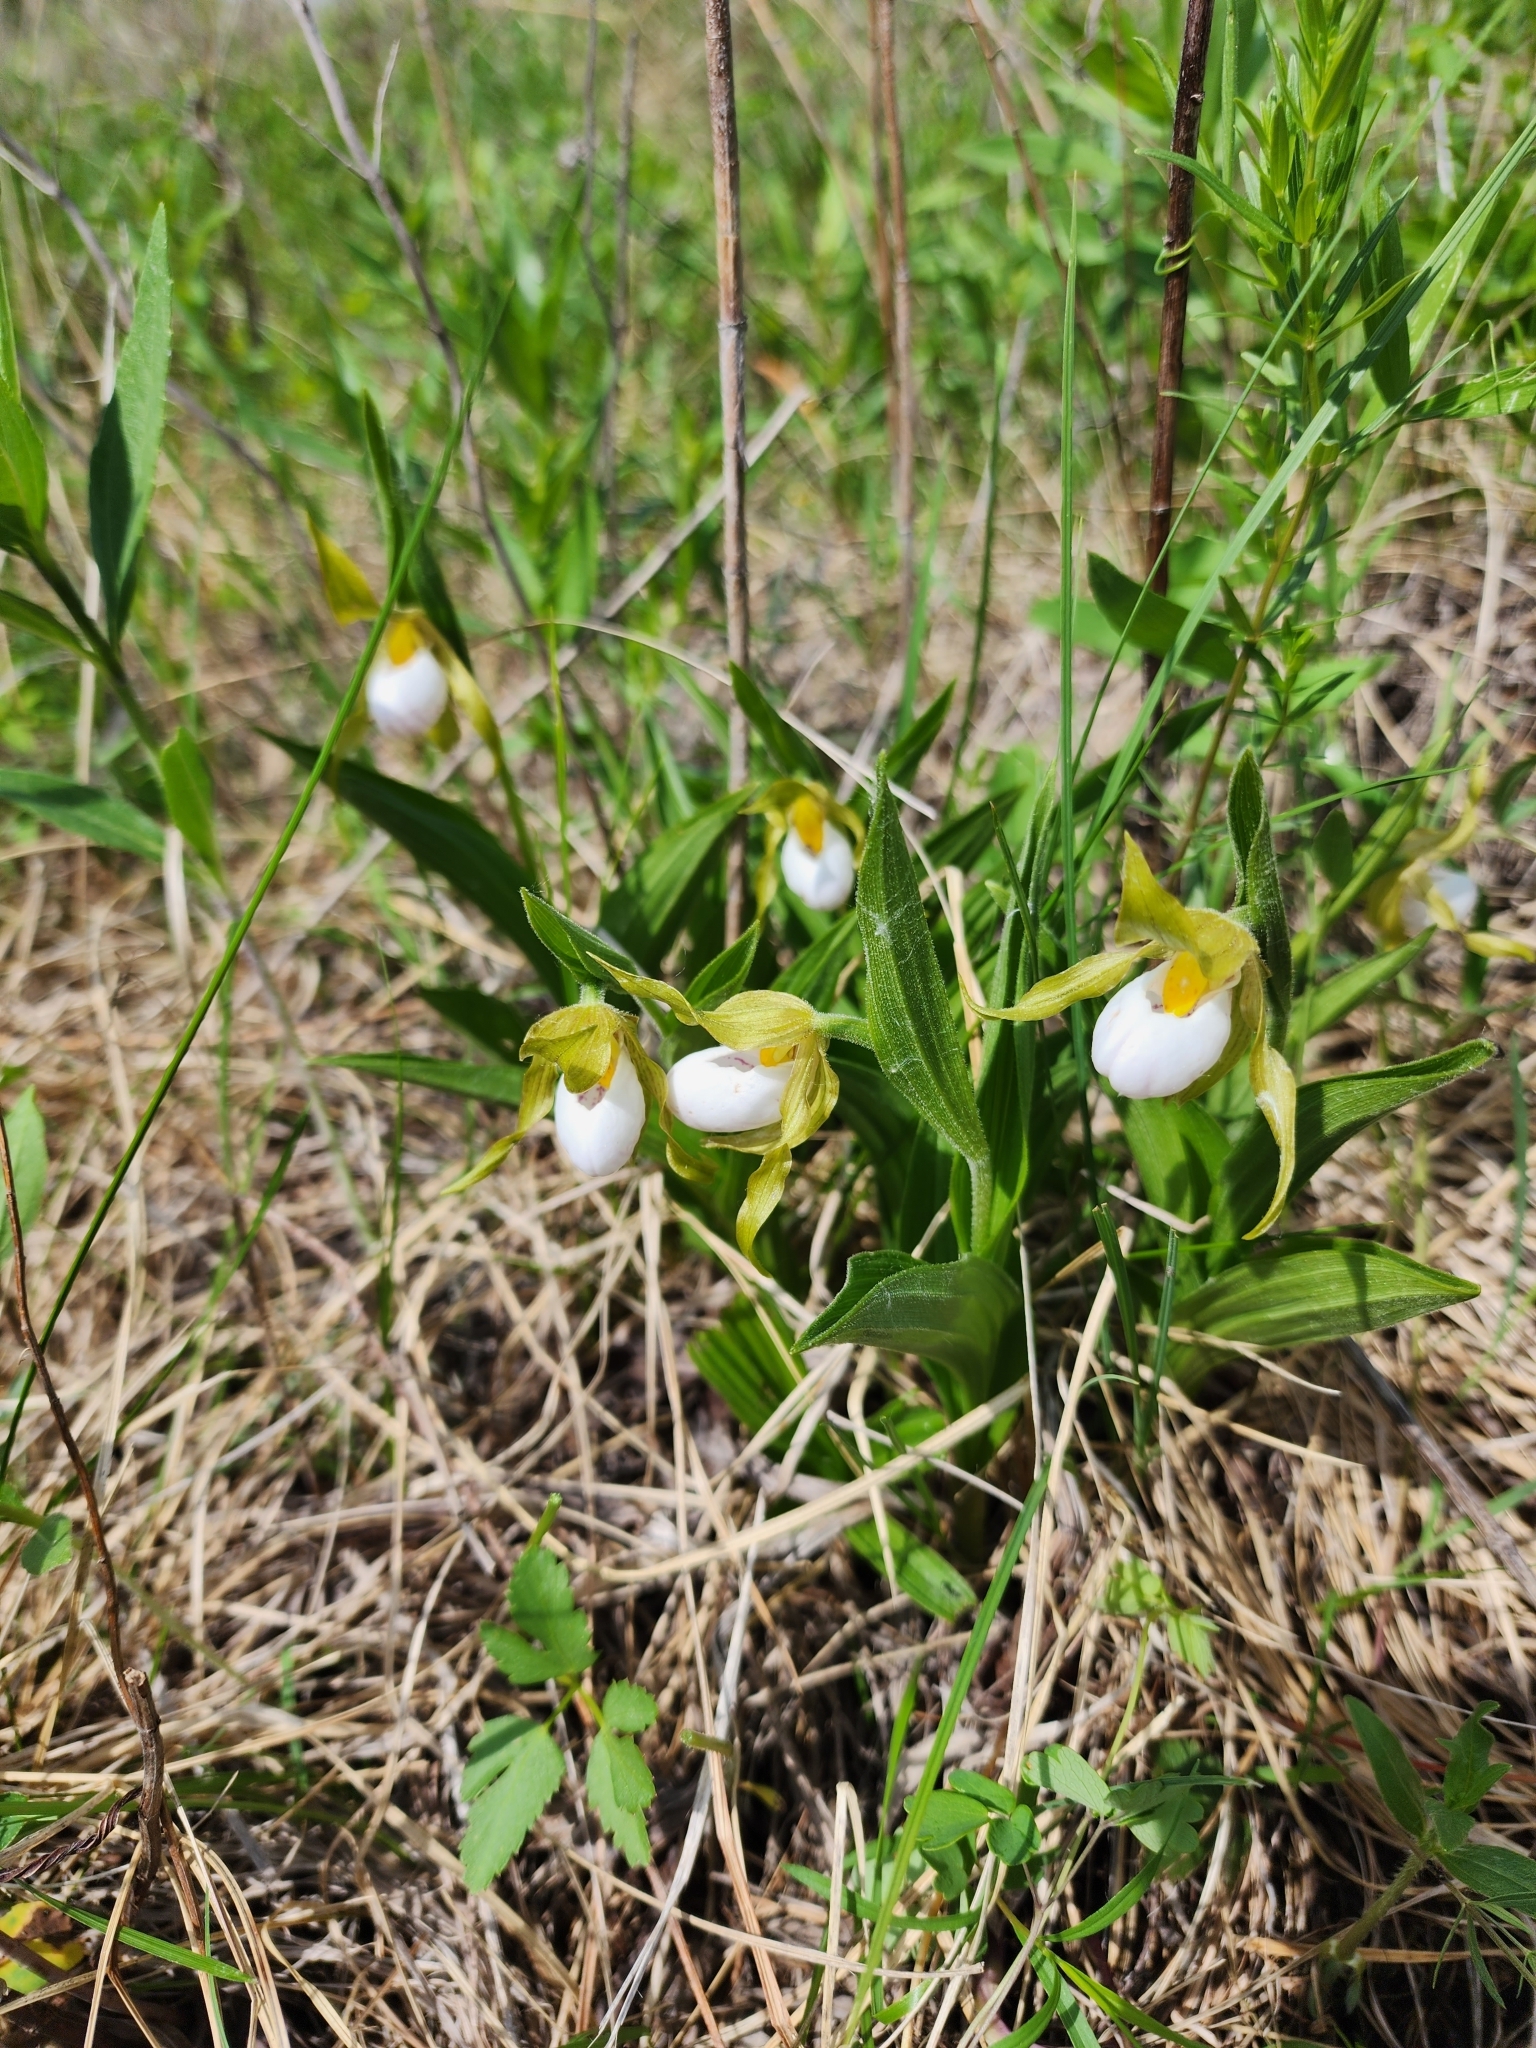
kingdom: Plantae
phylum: Tracheophyta
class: Liliopsida
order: Asparagales
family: Orchidaceae
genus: Cypripedium
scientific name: Cypripedium candidum
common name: White lady's-slipper
